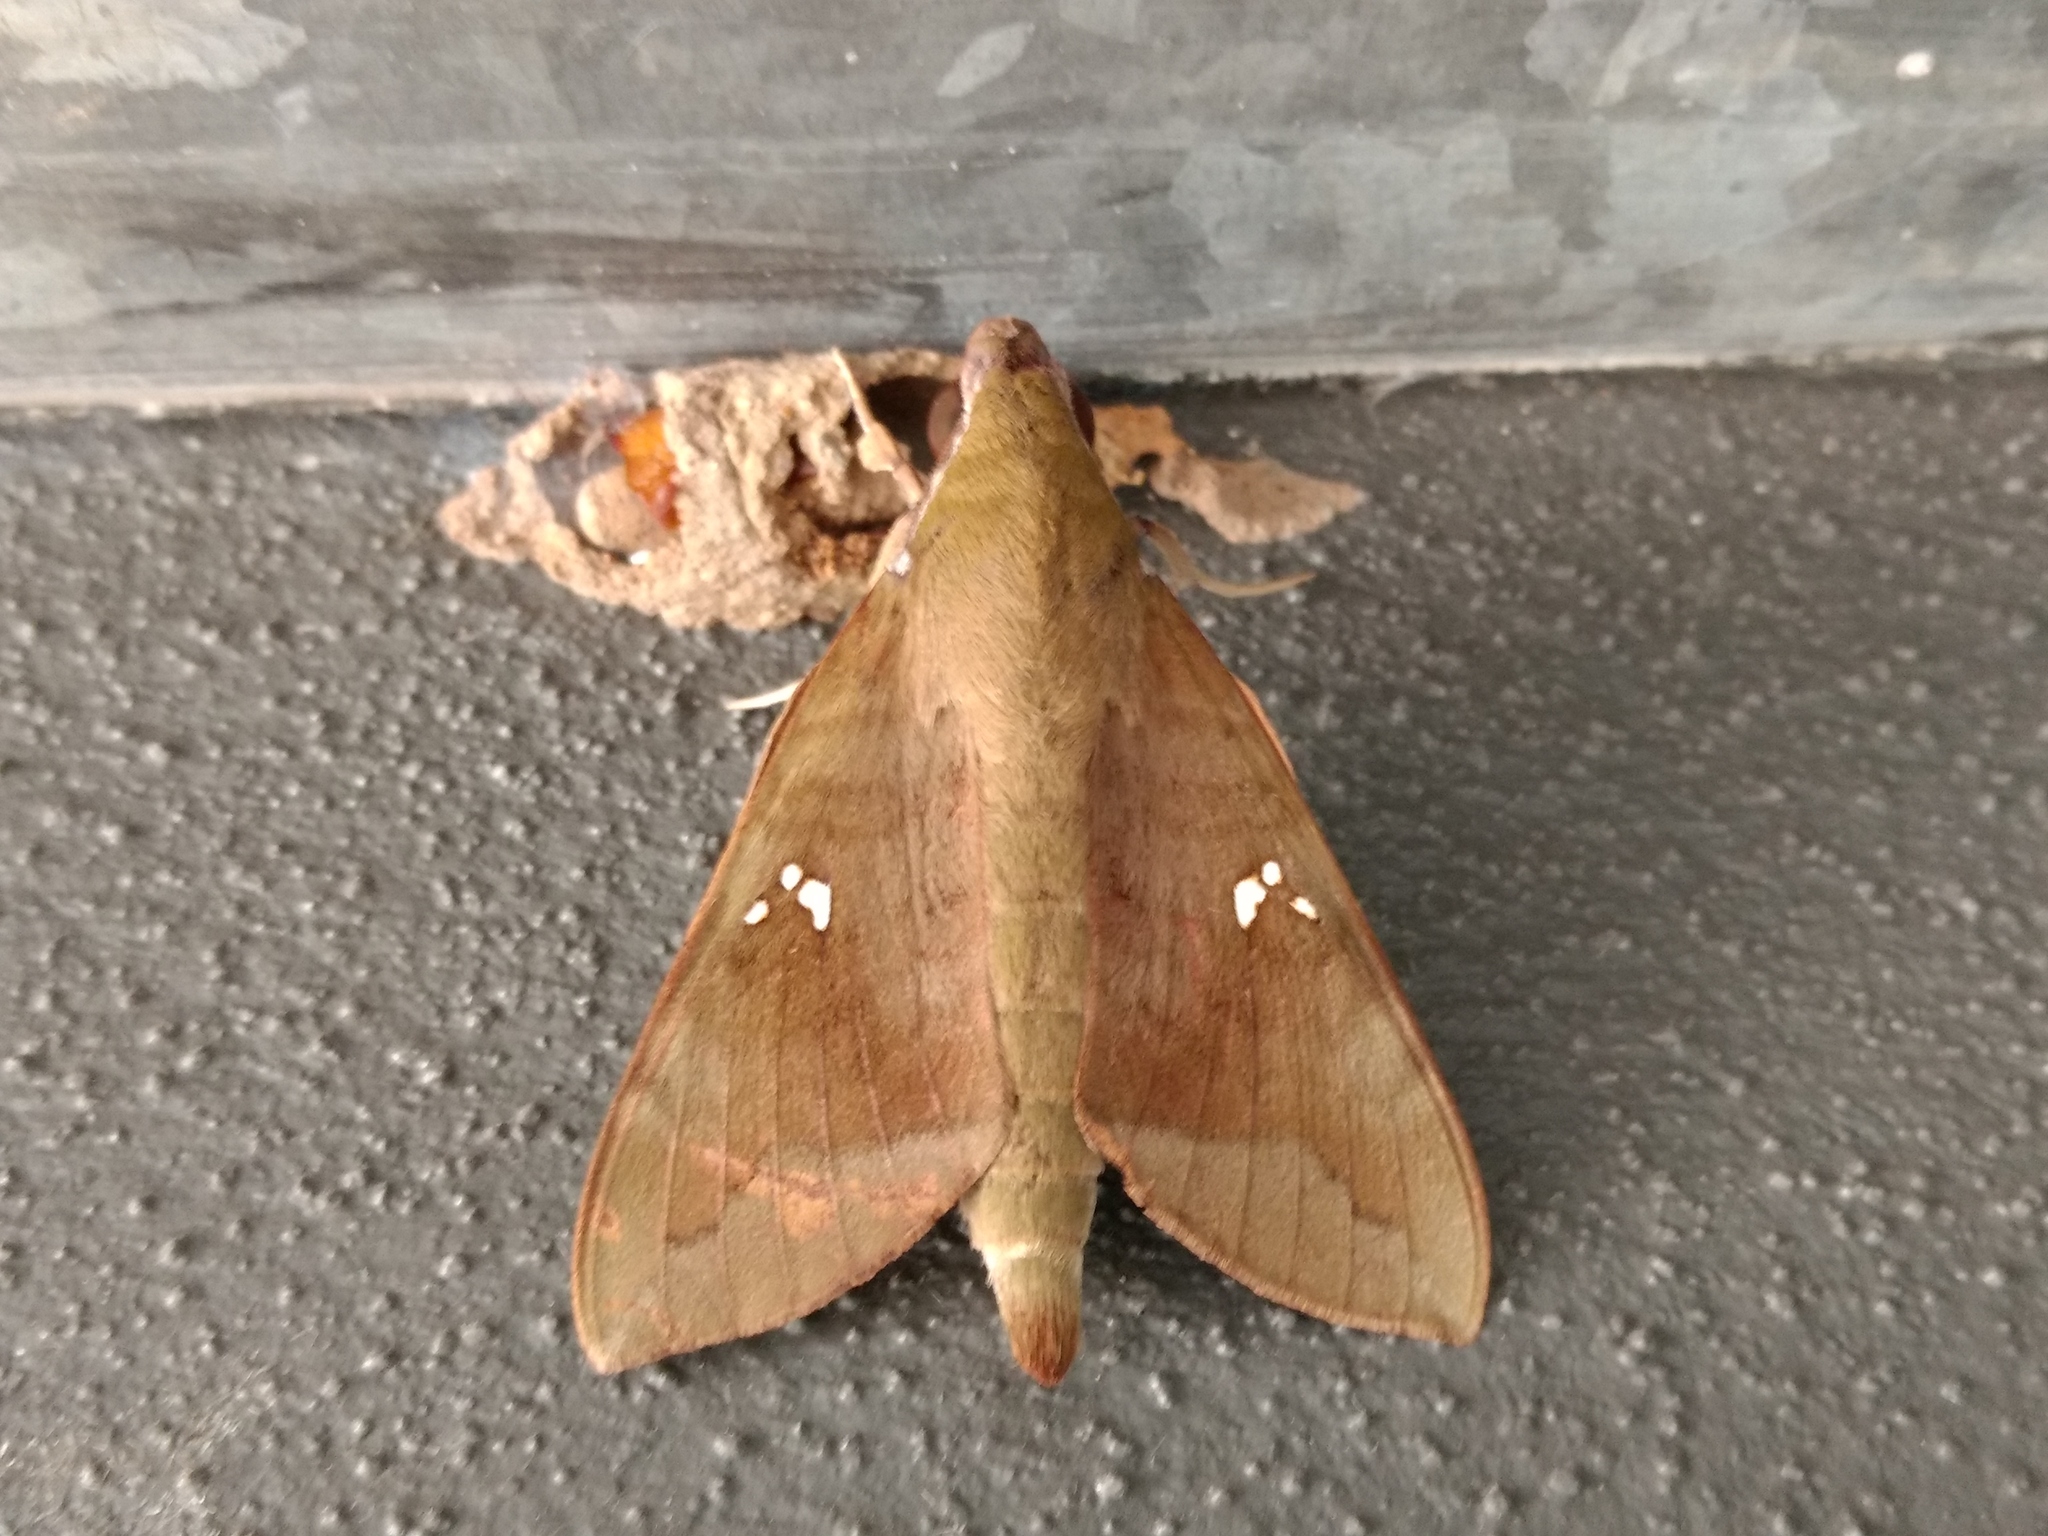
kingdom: Animalia
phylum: Arthropoda
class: Insecta
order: Lepidoptera
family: Sphingidae
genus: Nephele
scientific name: Nephele subvaria
